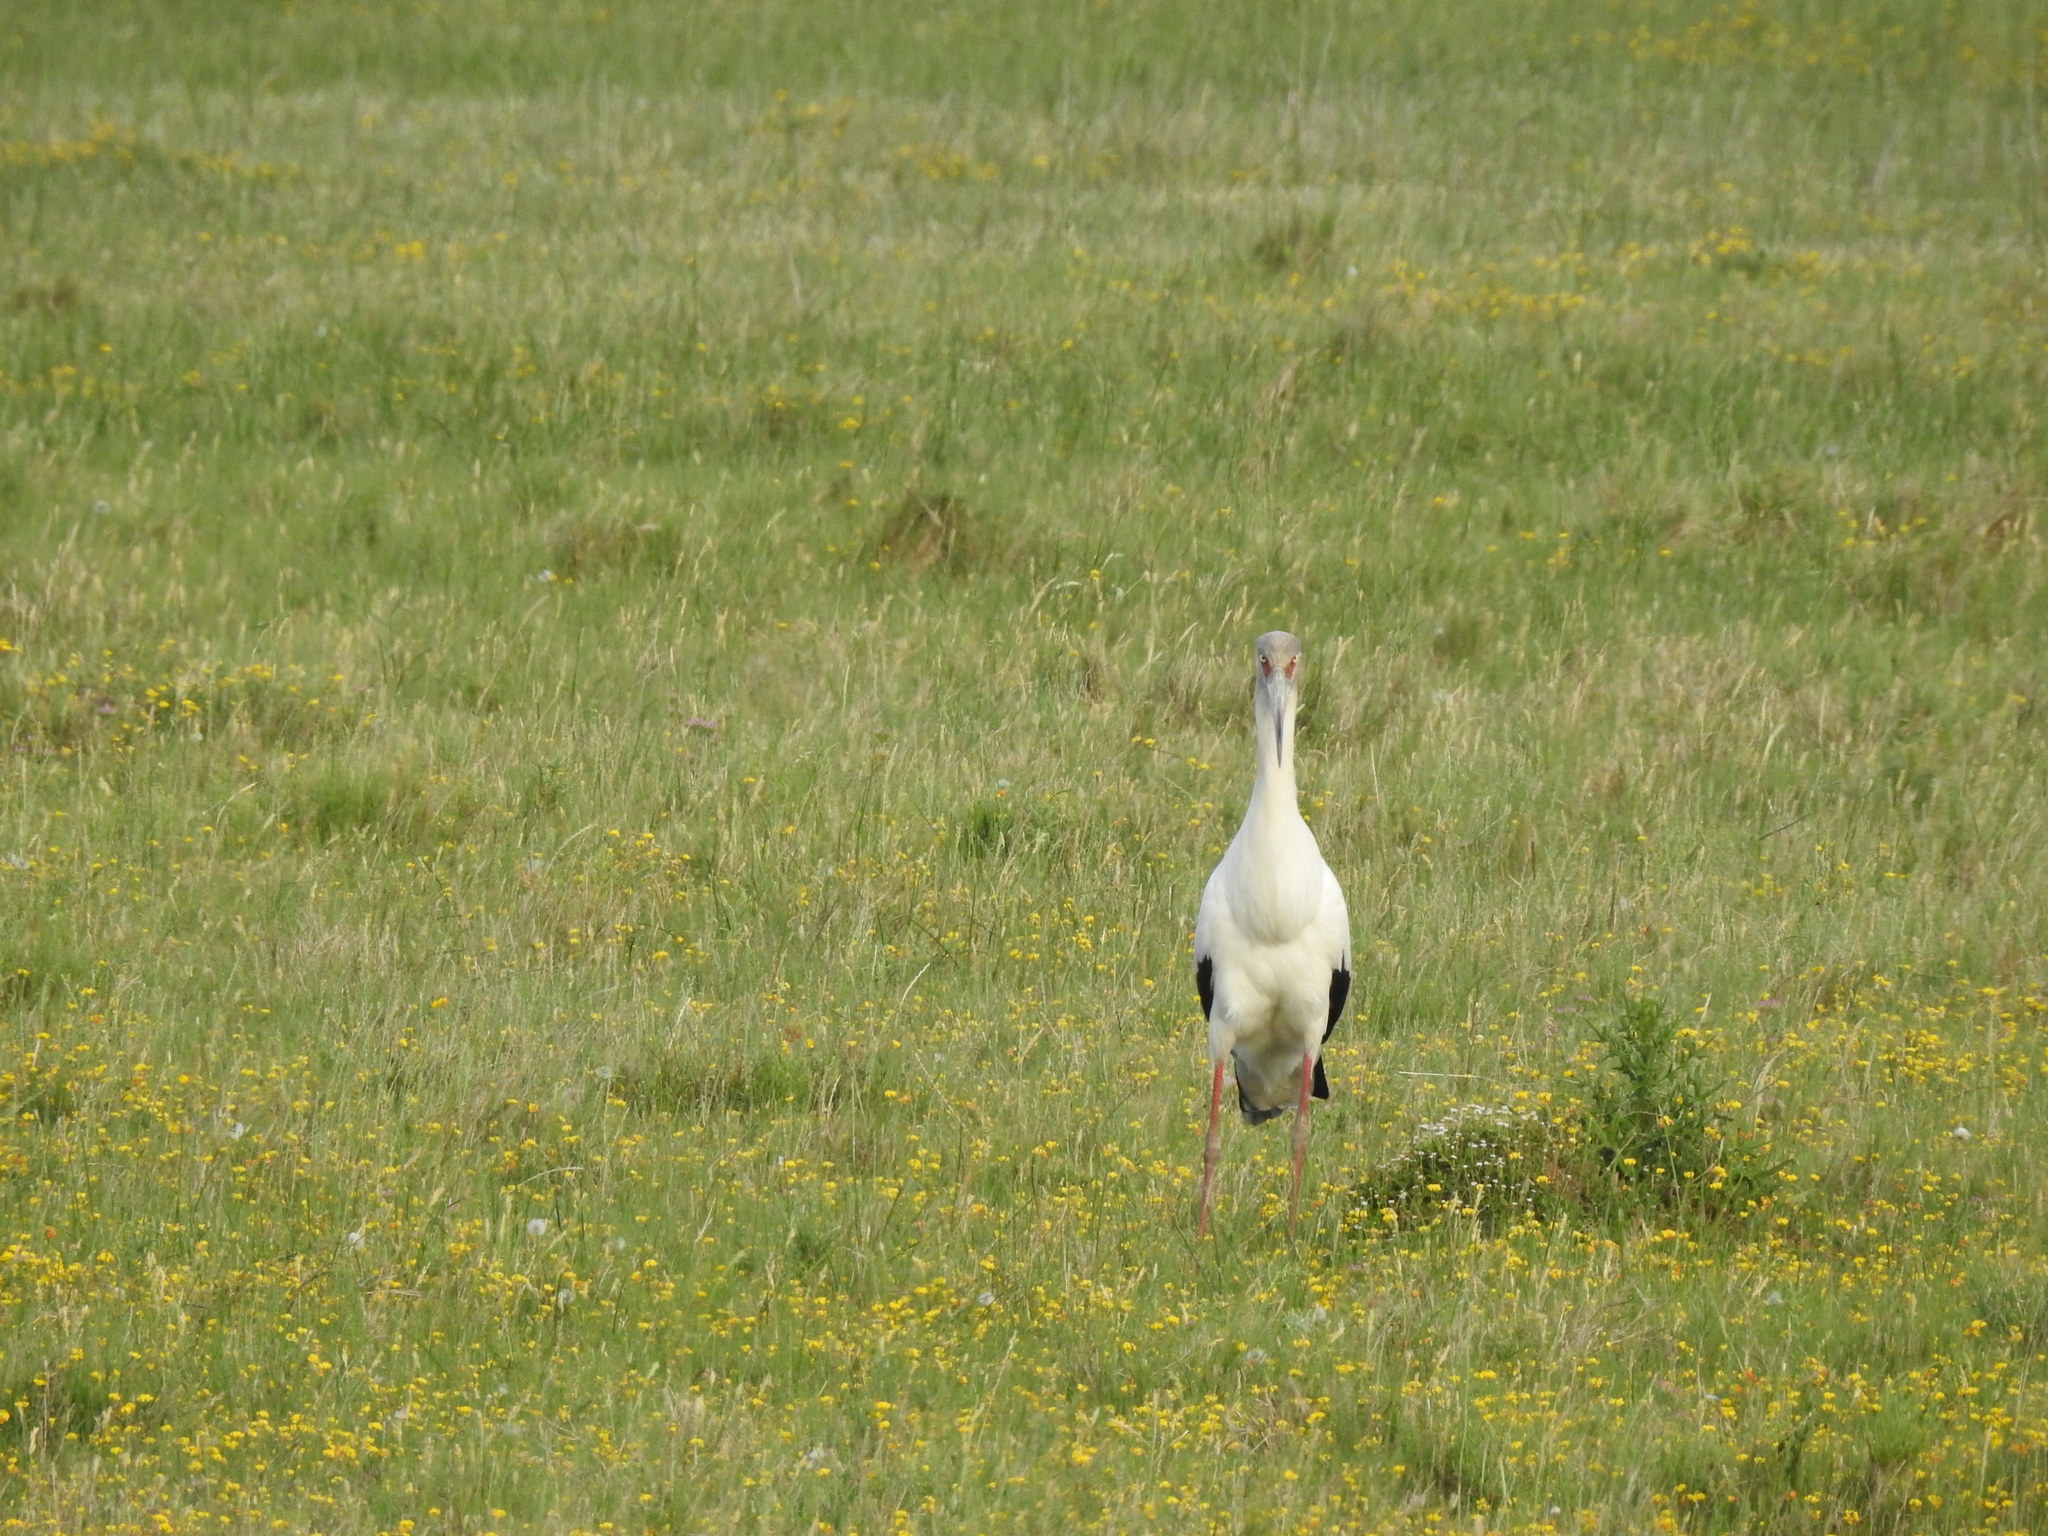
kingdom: Animalia
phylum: Chordata
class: Aves
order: Ciconiiformes
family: Ciconiidae
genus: Ciconia
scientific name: Ciconia maguari
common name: Maguari stork
